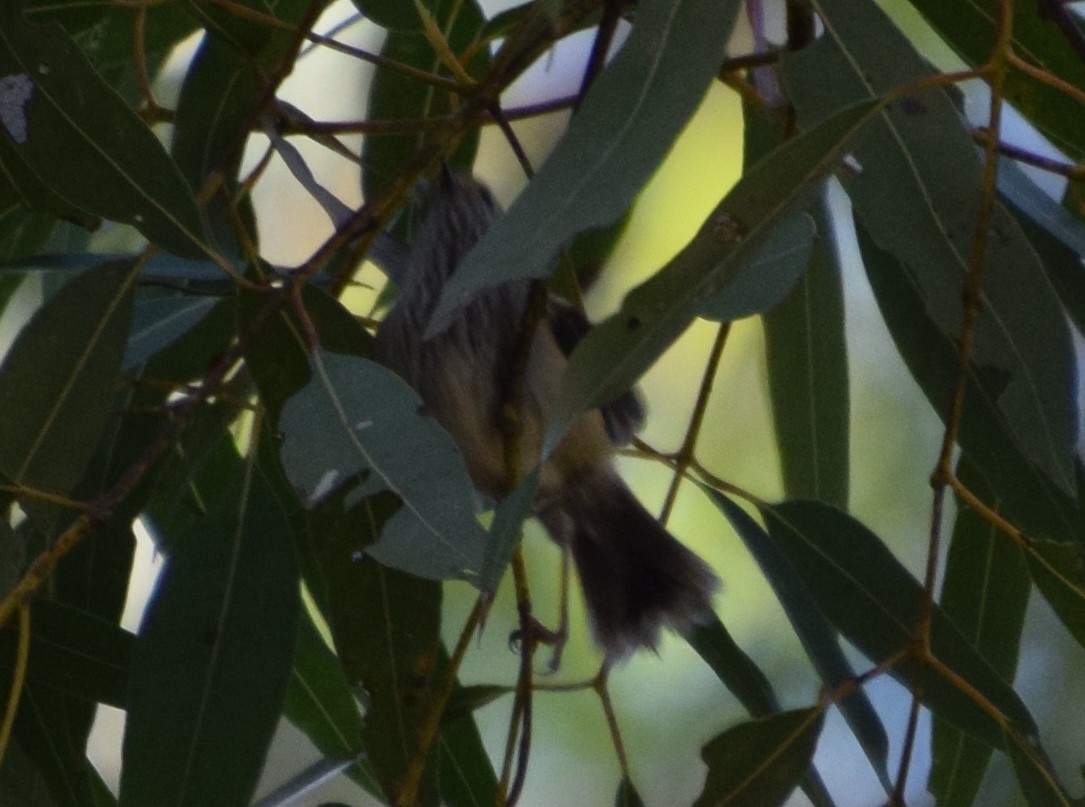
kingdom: Animalia
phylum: Chordata
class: Aves
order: Passeriformes
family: Acanthizidae
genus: Acanthiza
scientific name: Acanthiza pusilla
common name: Brown thornbill
